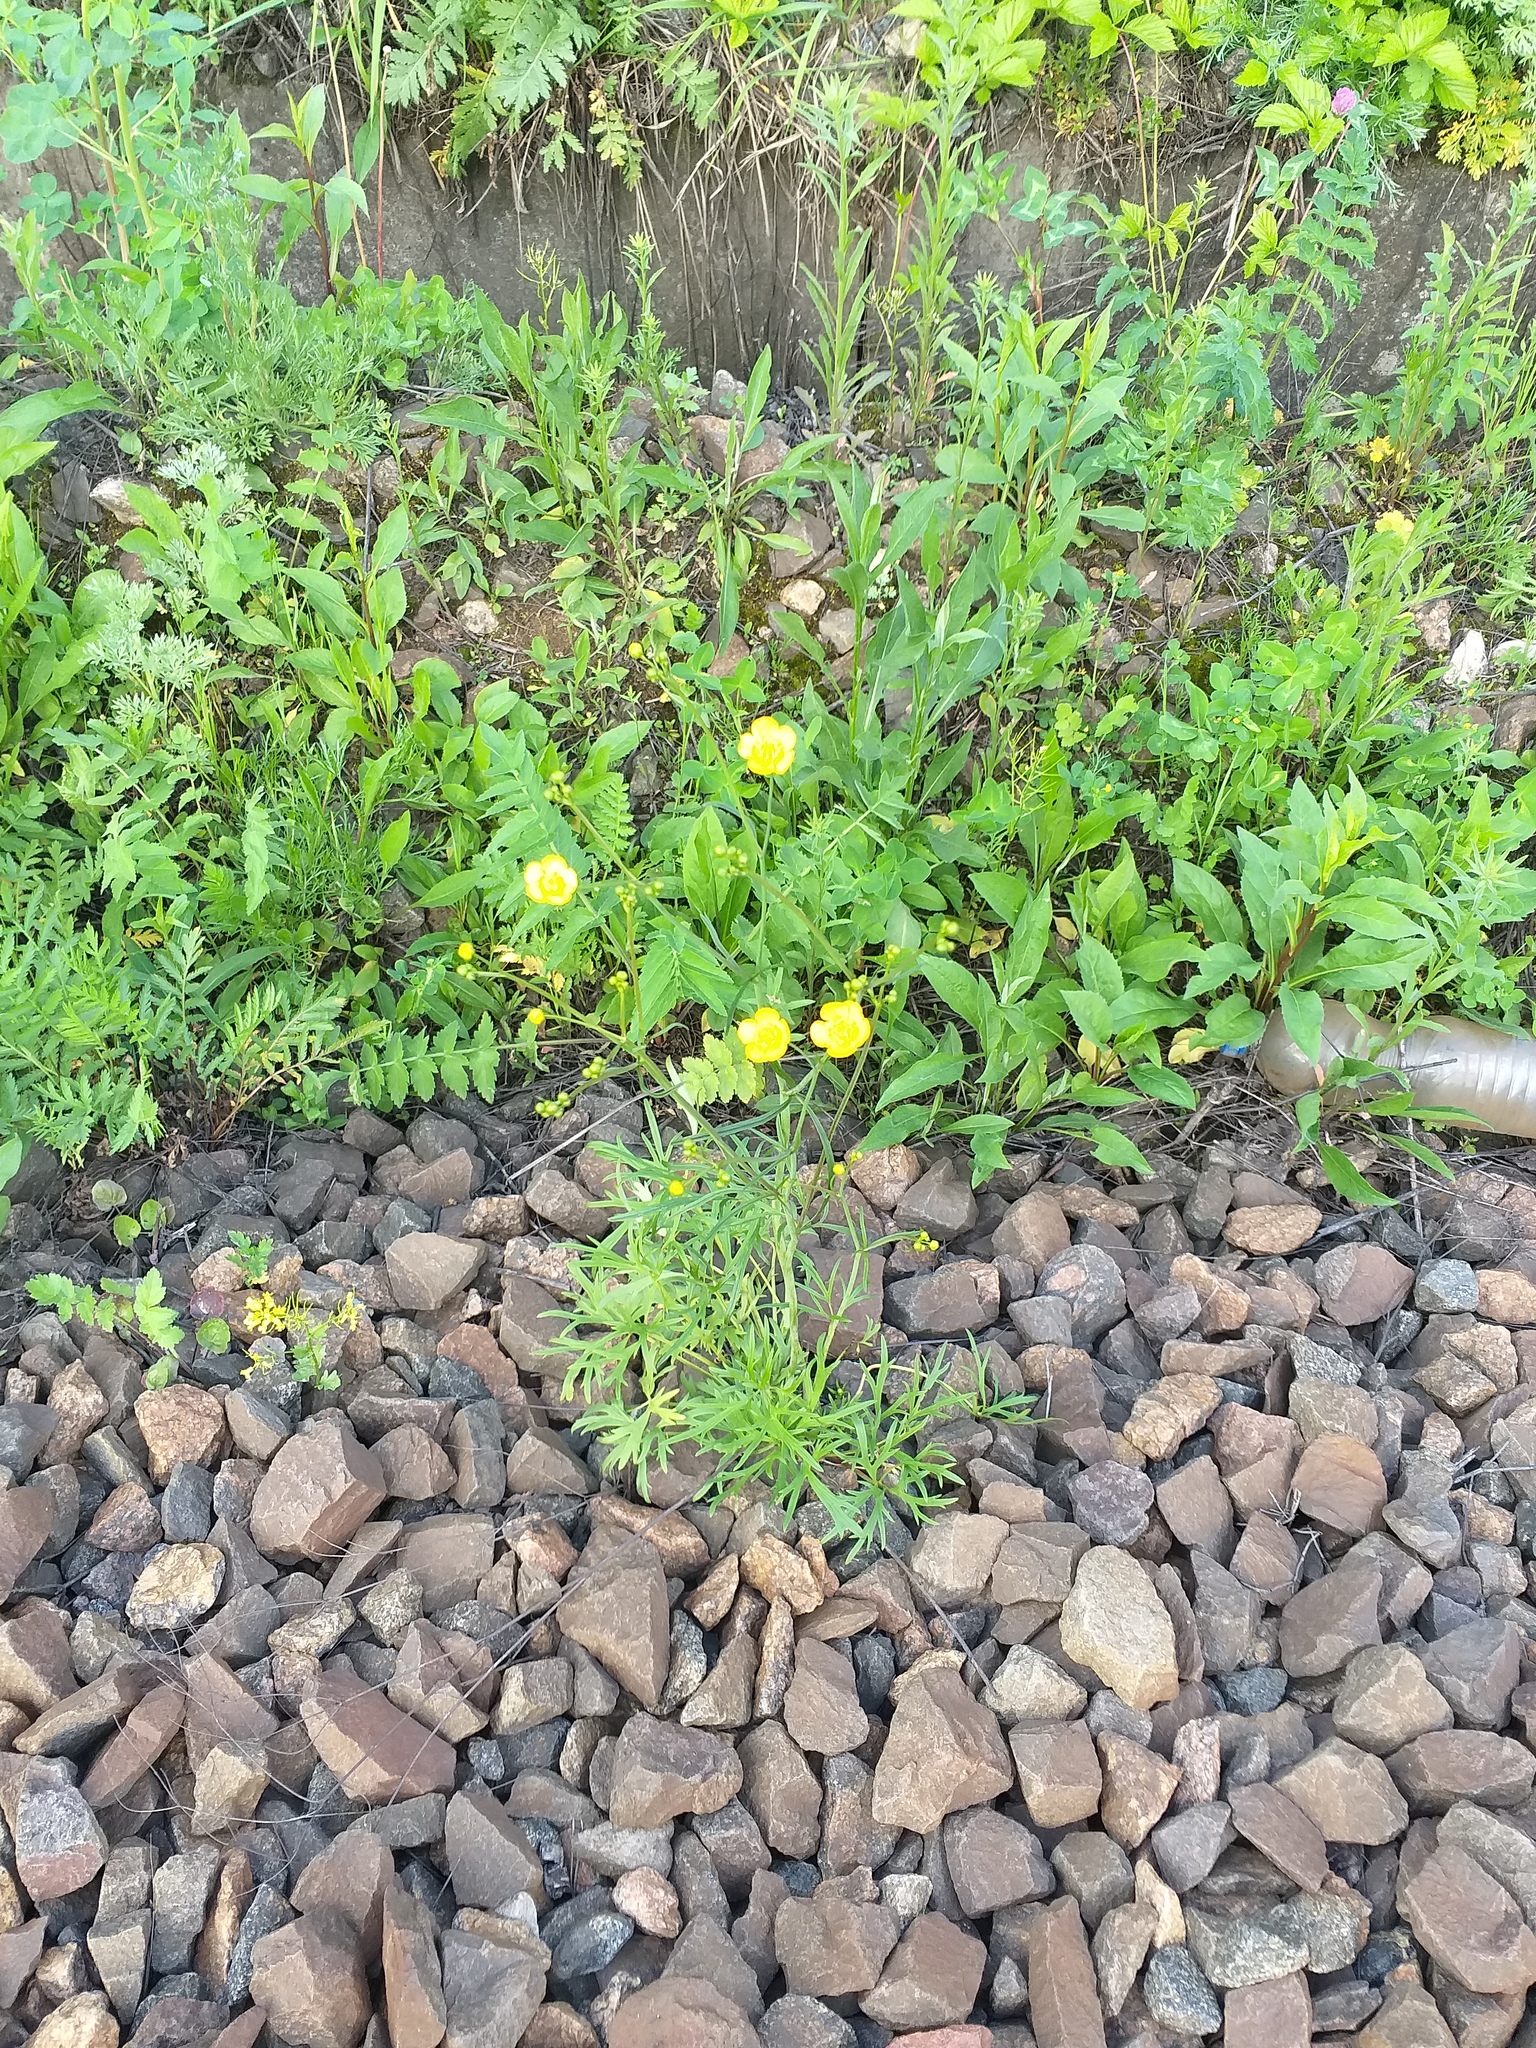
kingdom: Plantae
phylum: Tracheophyta
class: Magnoliopsida
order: Ranunculales
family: Ranunculaceae
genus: Ranunculus
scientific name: Ranunculus acris
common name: Meadow buttercup
